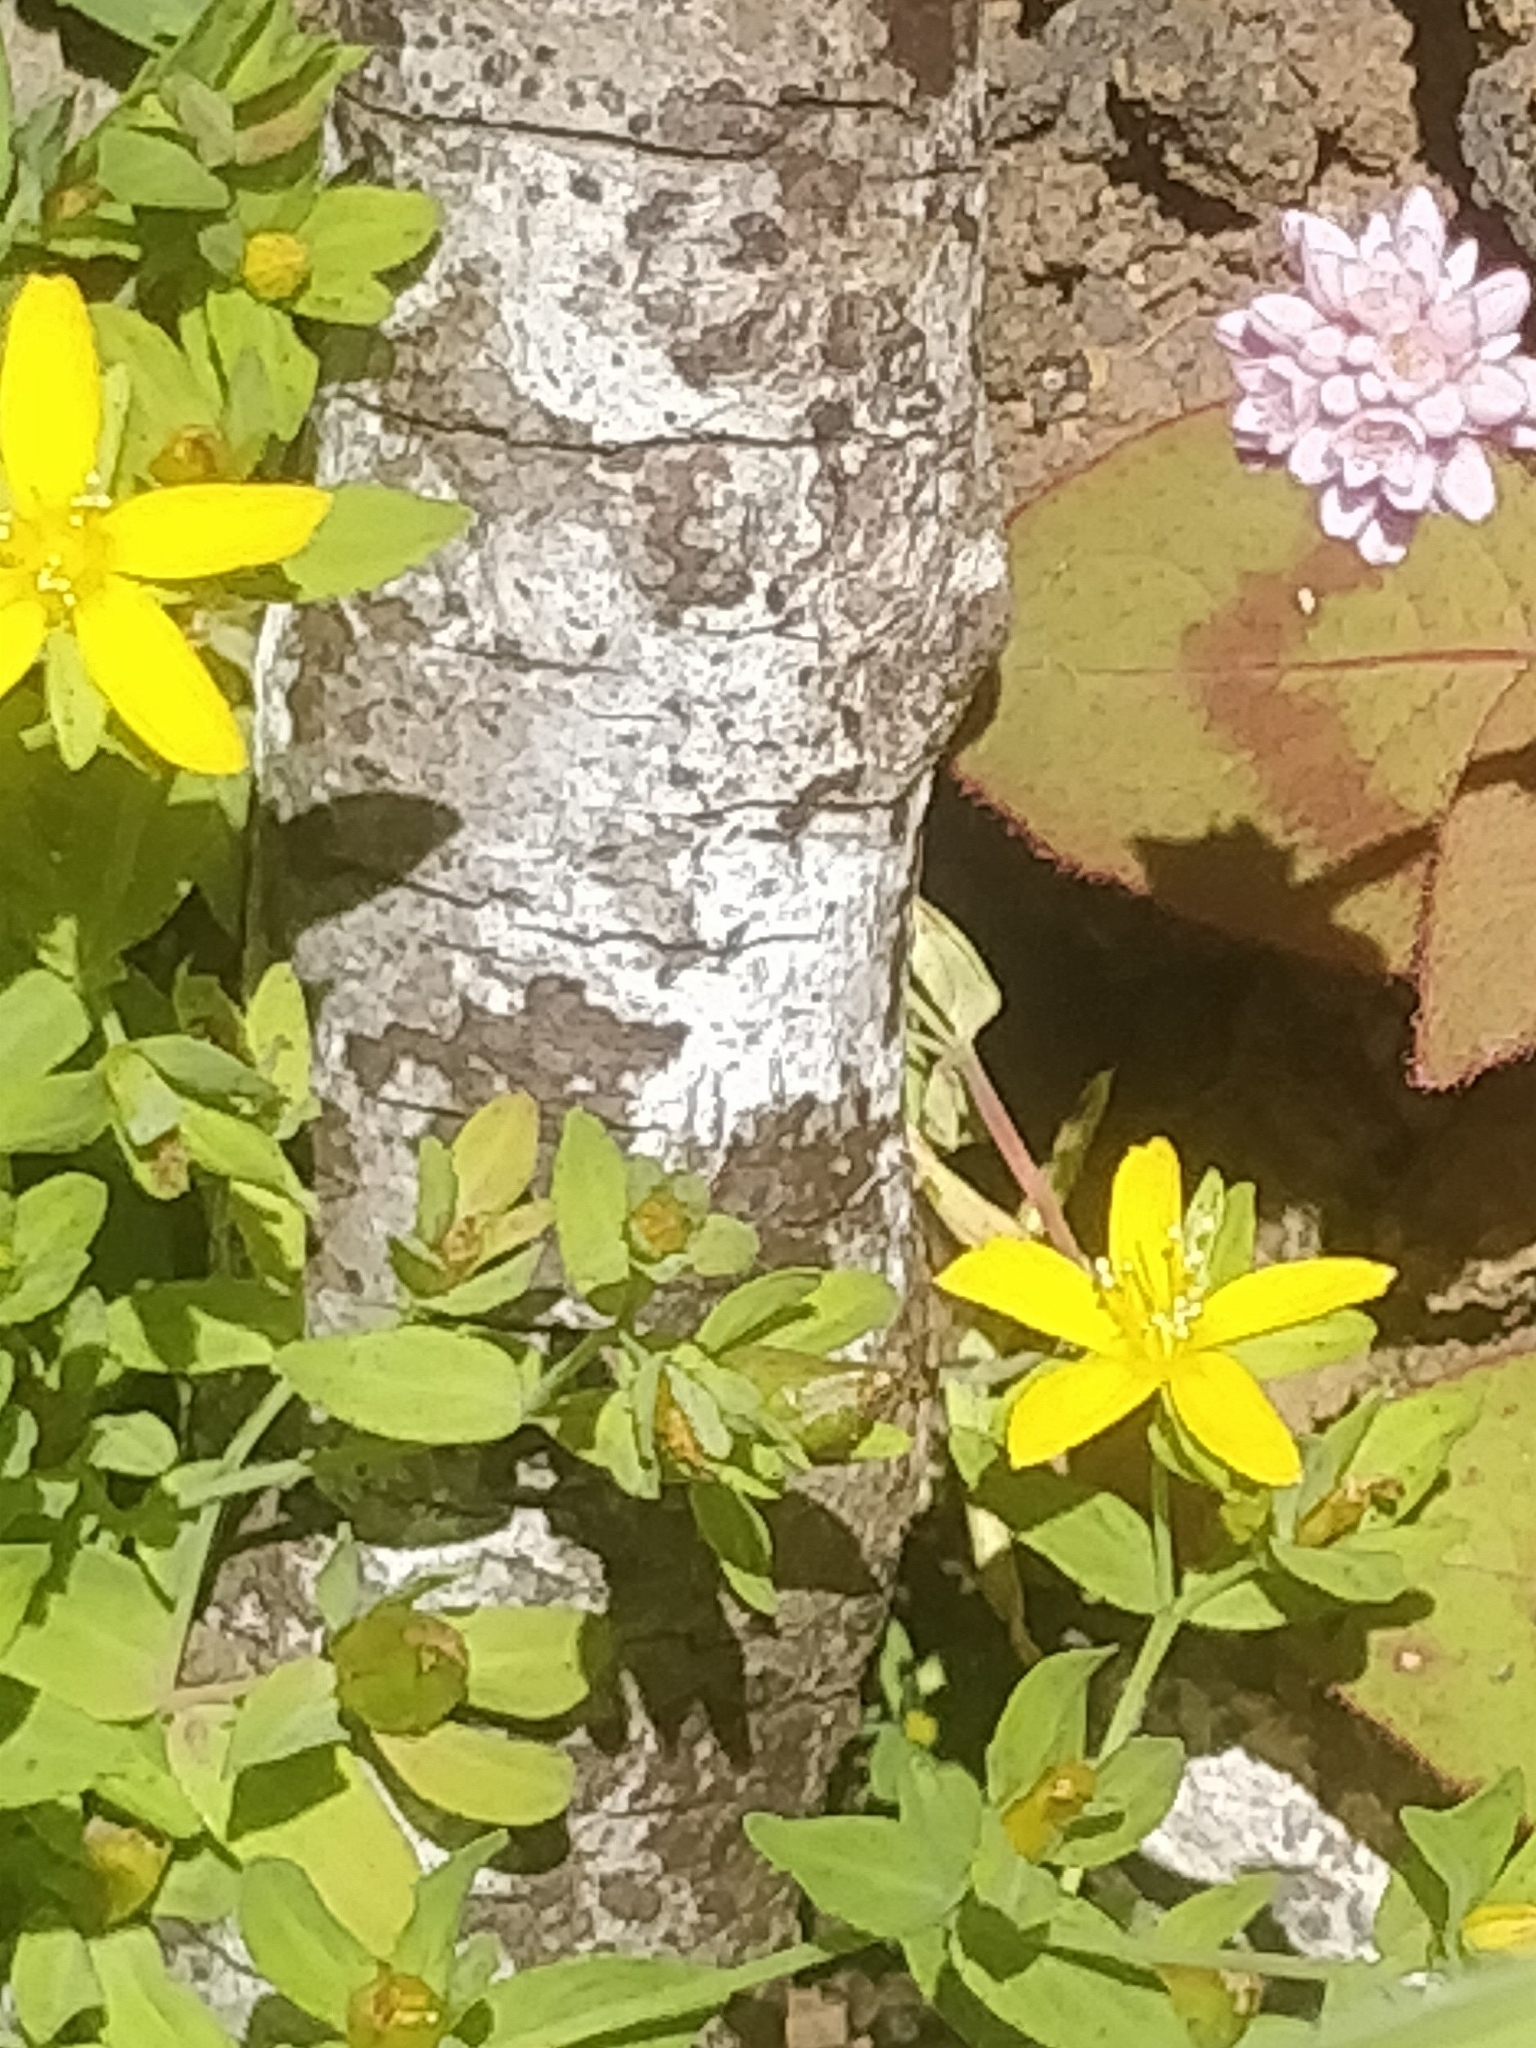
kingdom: Plantae
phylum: Tracheophyta
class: Magnoliopsida
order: Malpighiales
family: Hypericaceae
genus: Hypericum
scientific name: Hypericum humifusum
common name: Trailing st. john's-wort
